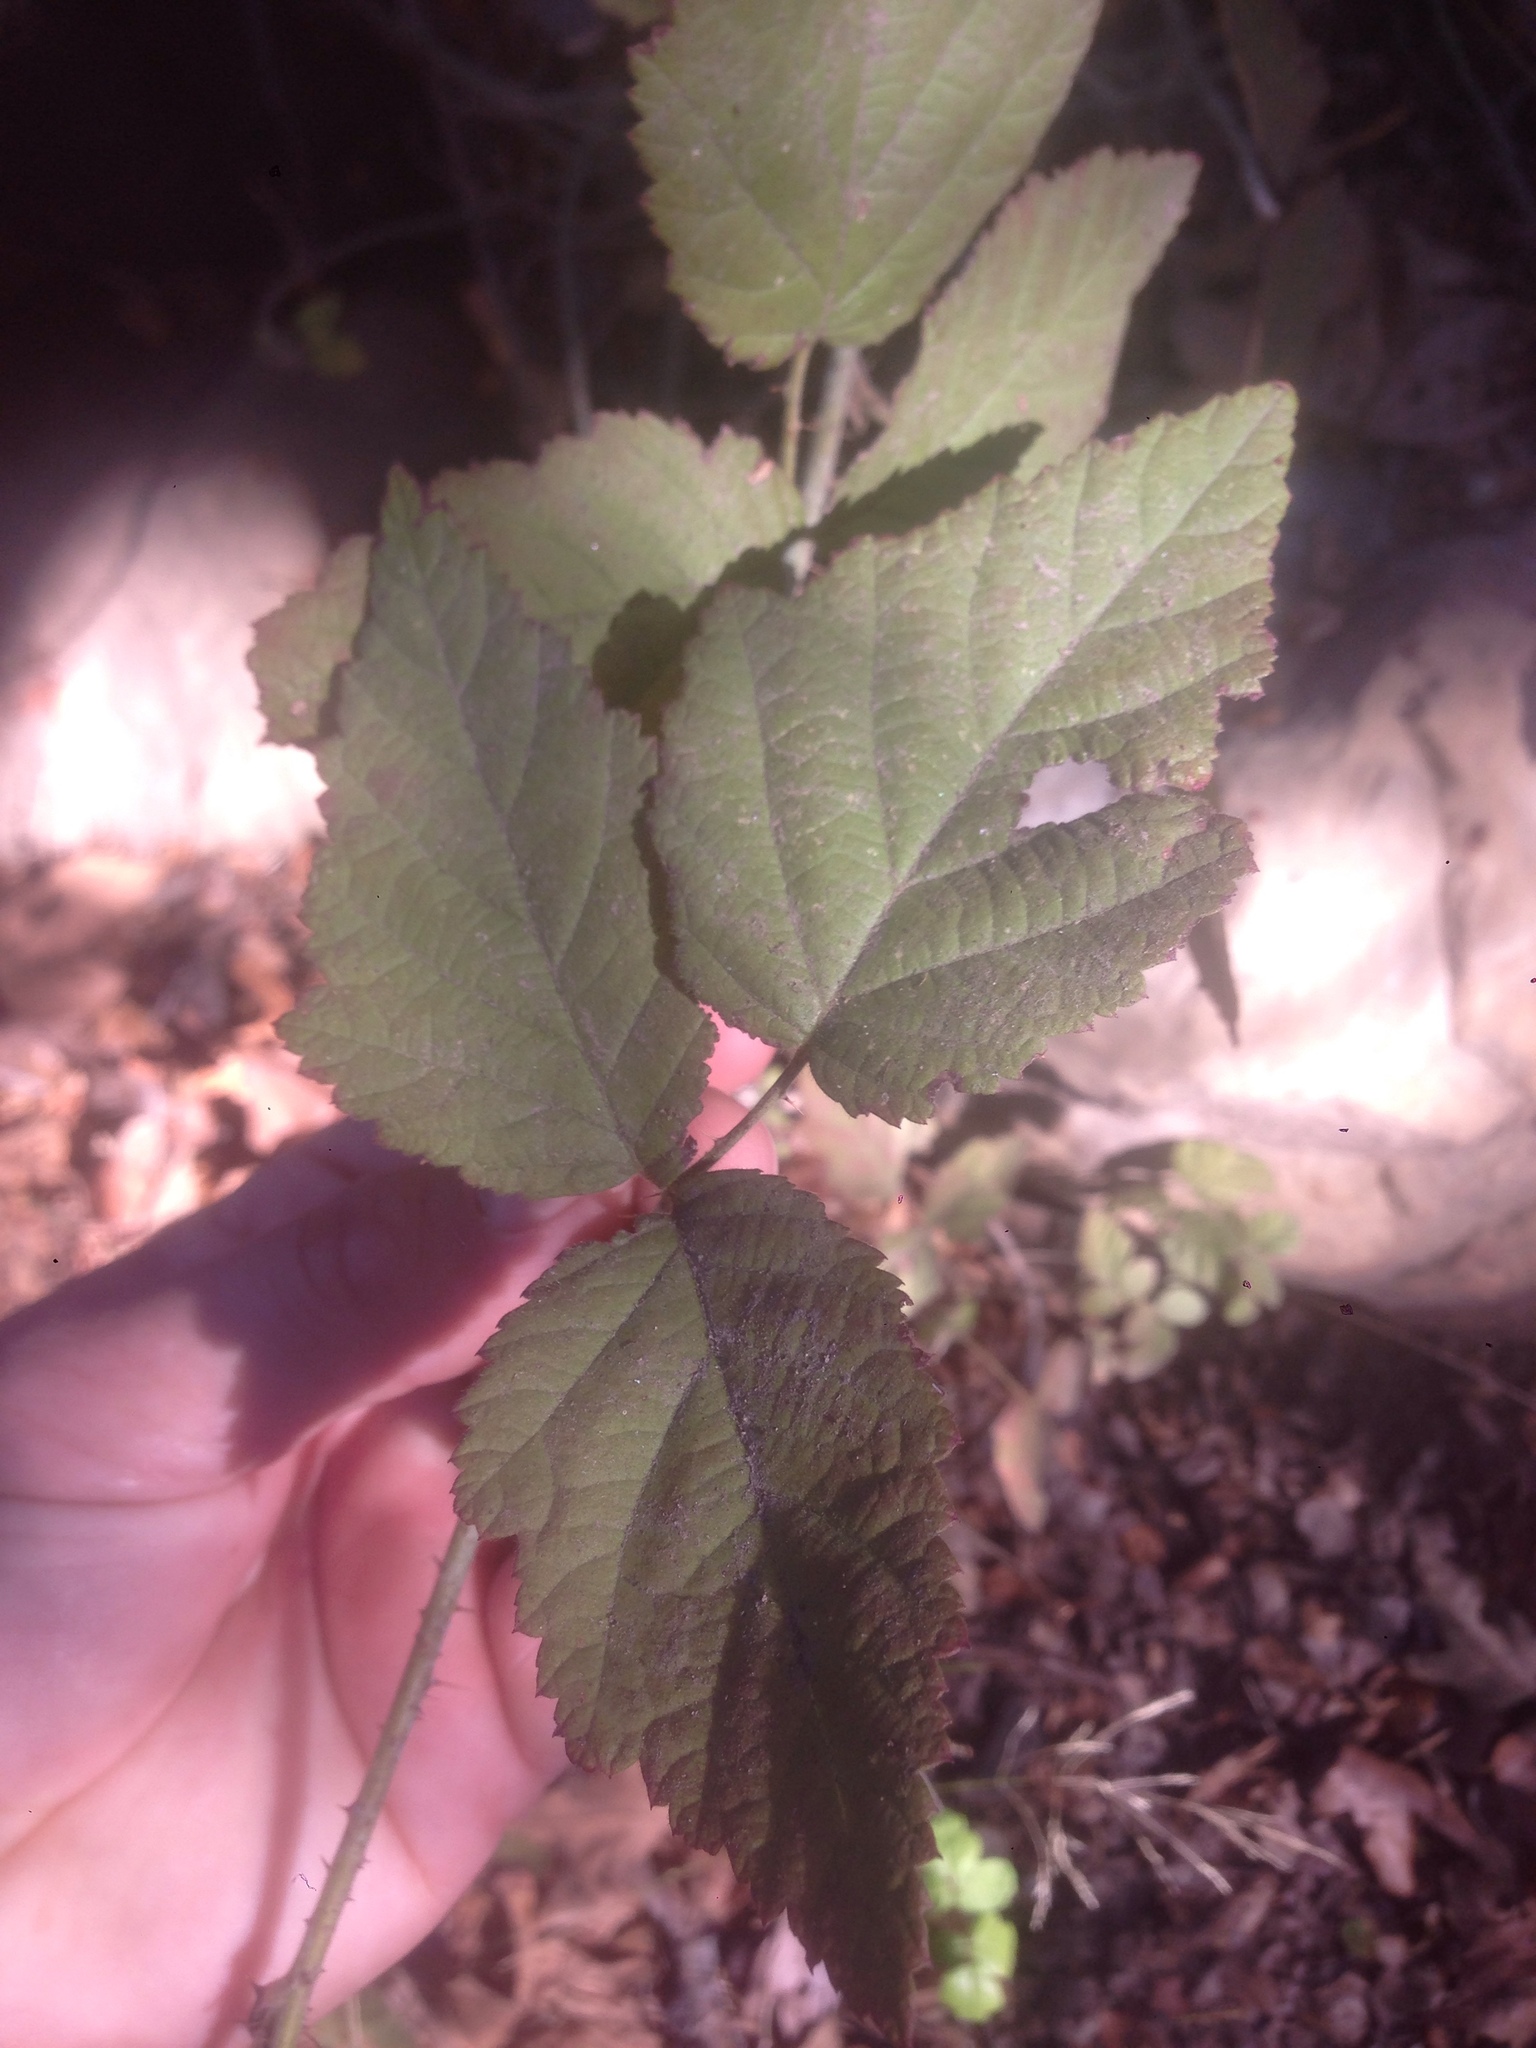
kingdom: Plantae
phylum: Tracheophyta
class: Magnoliopsida
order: Rosales
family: Rosaceae
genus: Rubus
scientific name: Rubus ursinus
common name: Pacific blackberry
